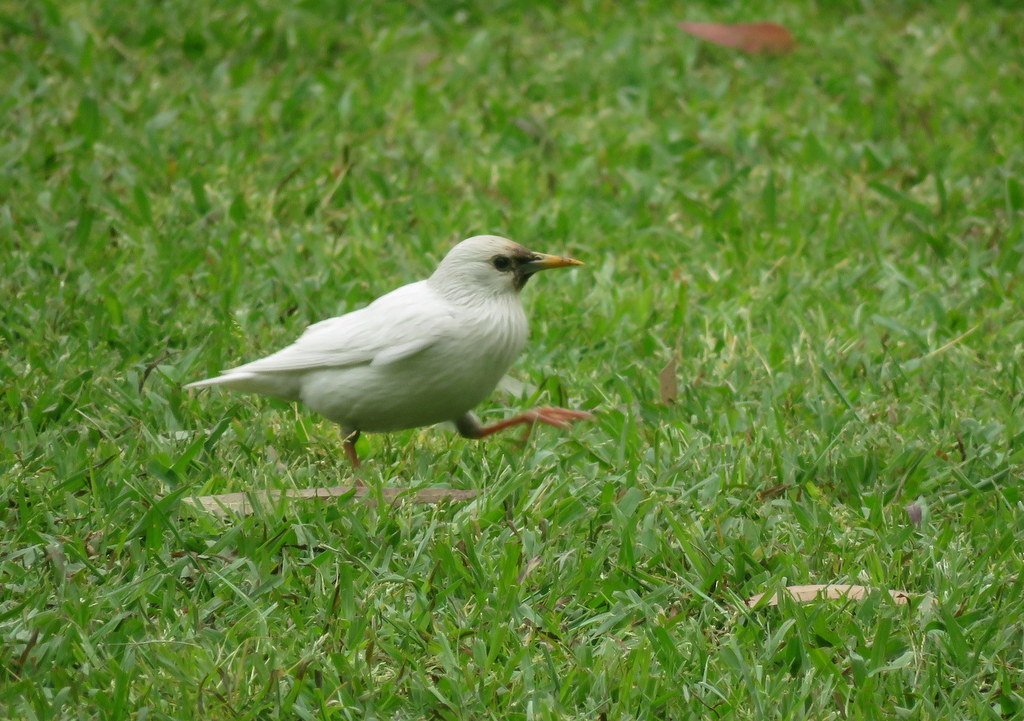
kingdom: Animalia
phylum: Chordata
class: Aves
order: Passeriformes
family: Sturnidae
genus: Sturnus
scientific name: Sturnus vulgaris
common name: Common starling
